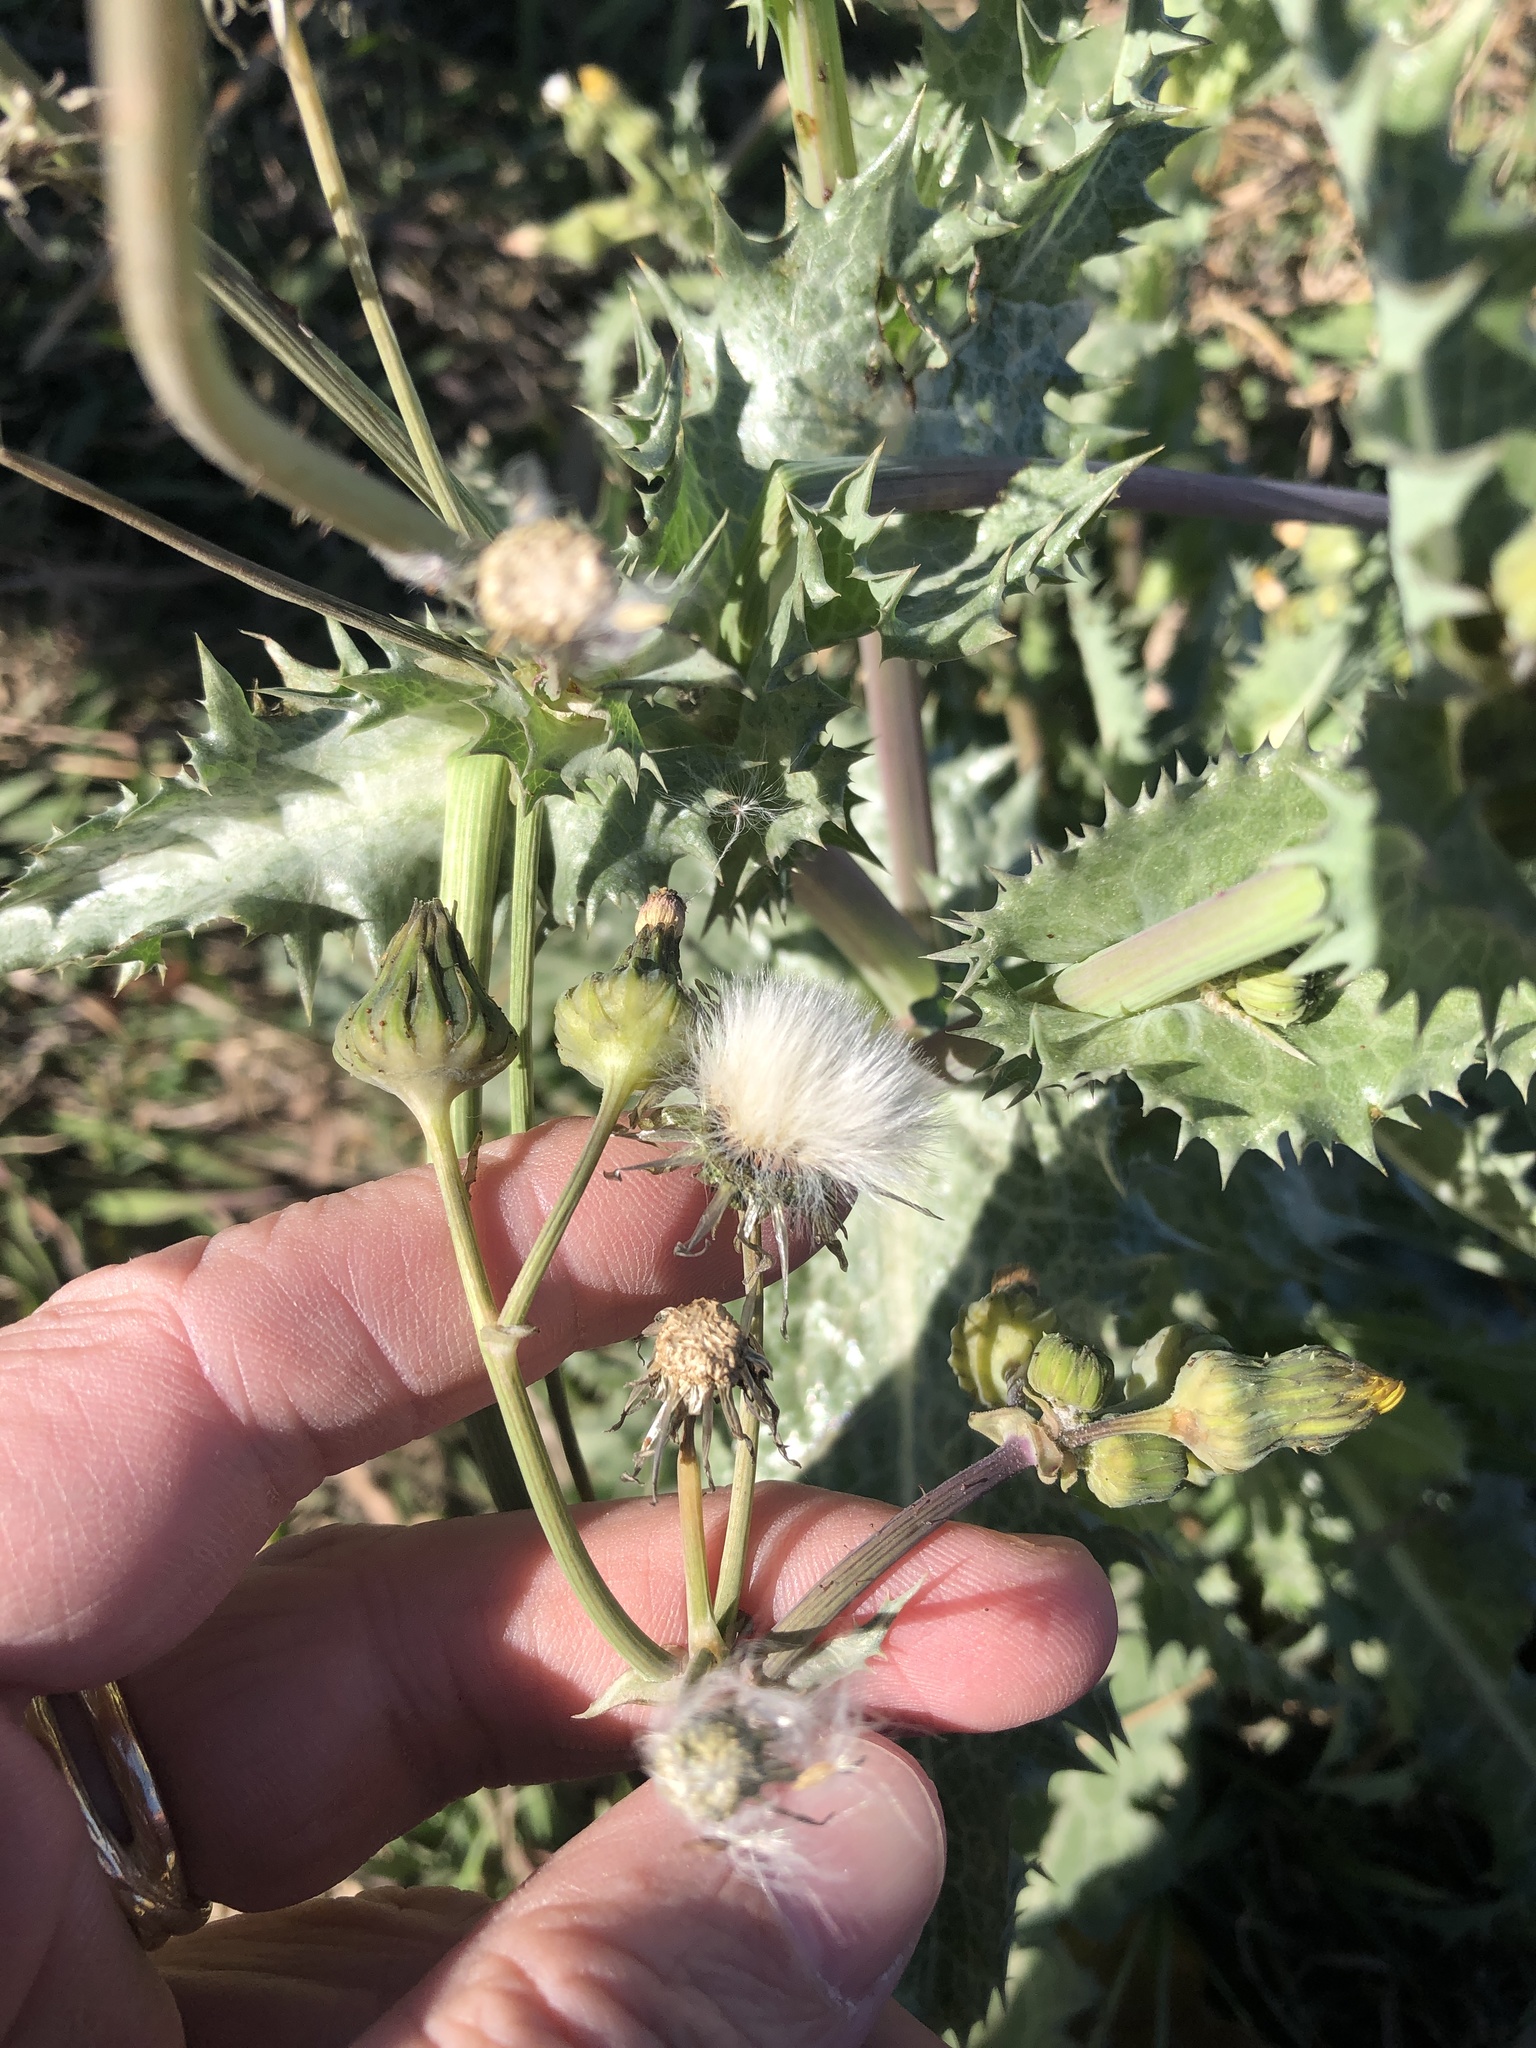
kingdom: Plantae
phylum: Tracheophyta
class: Magnoliopsida
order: Asterales
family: Asteraceae
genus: Sonchus
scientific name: Sonchus asper
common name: Prickly sow-thistle
